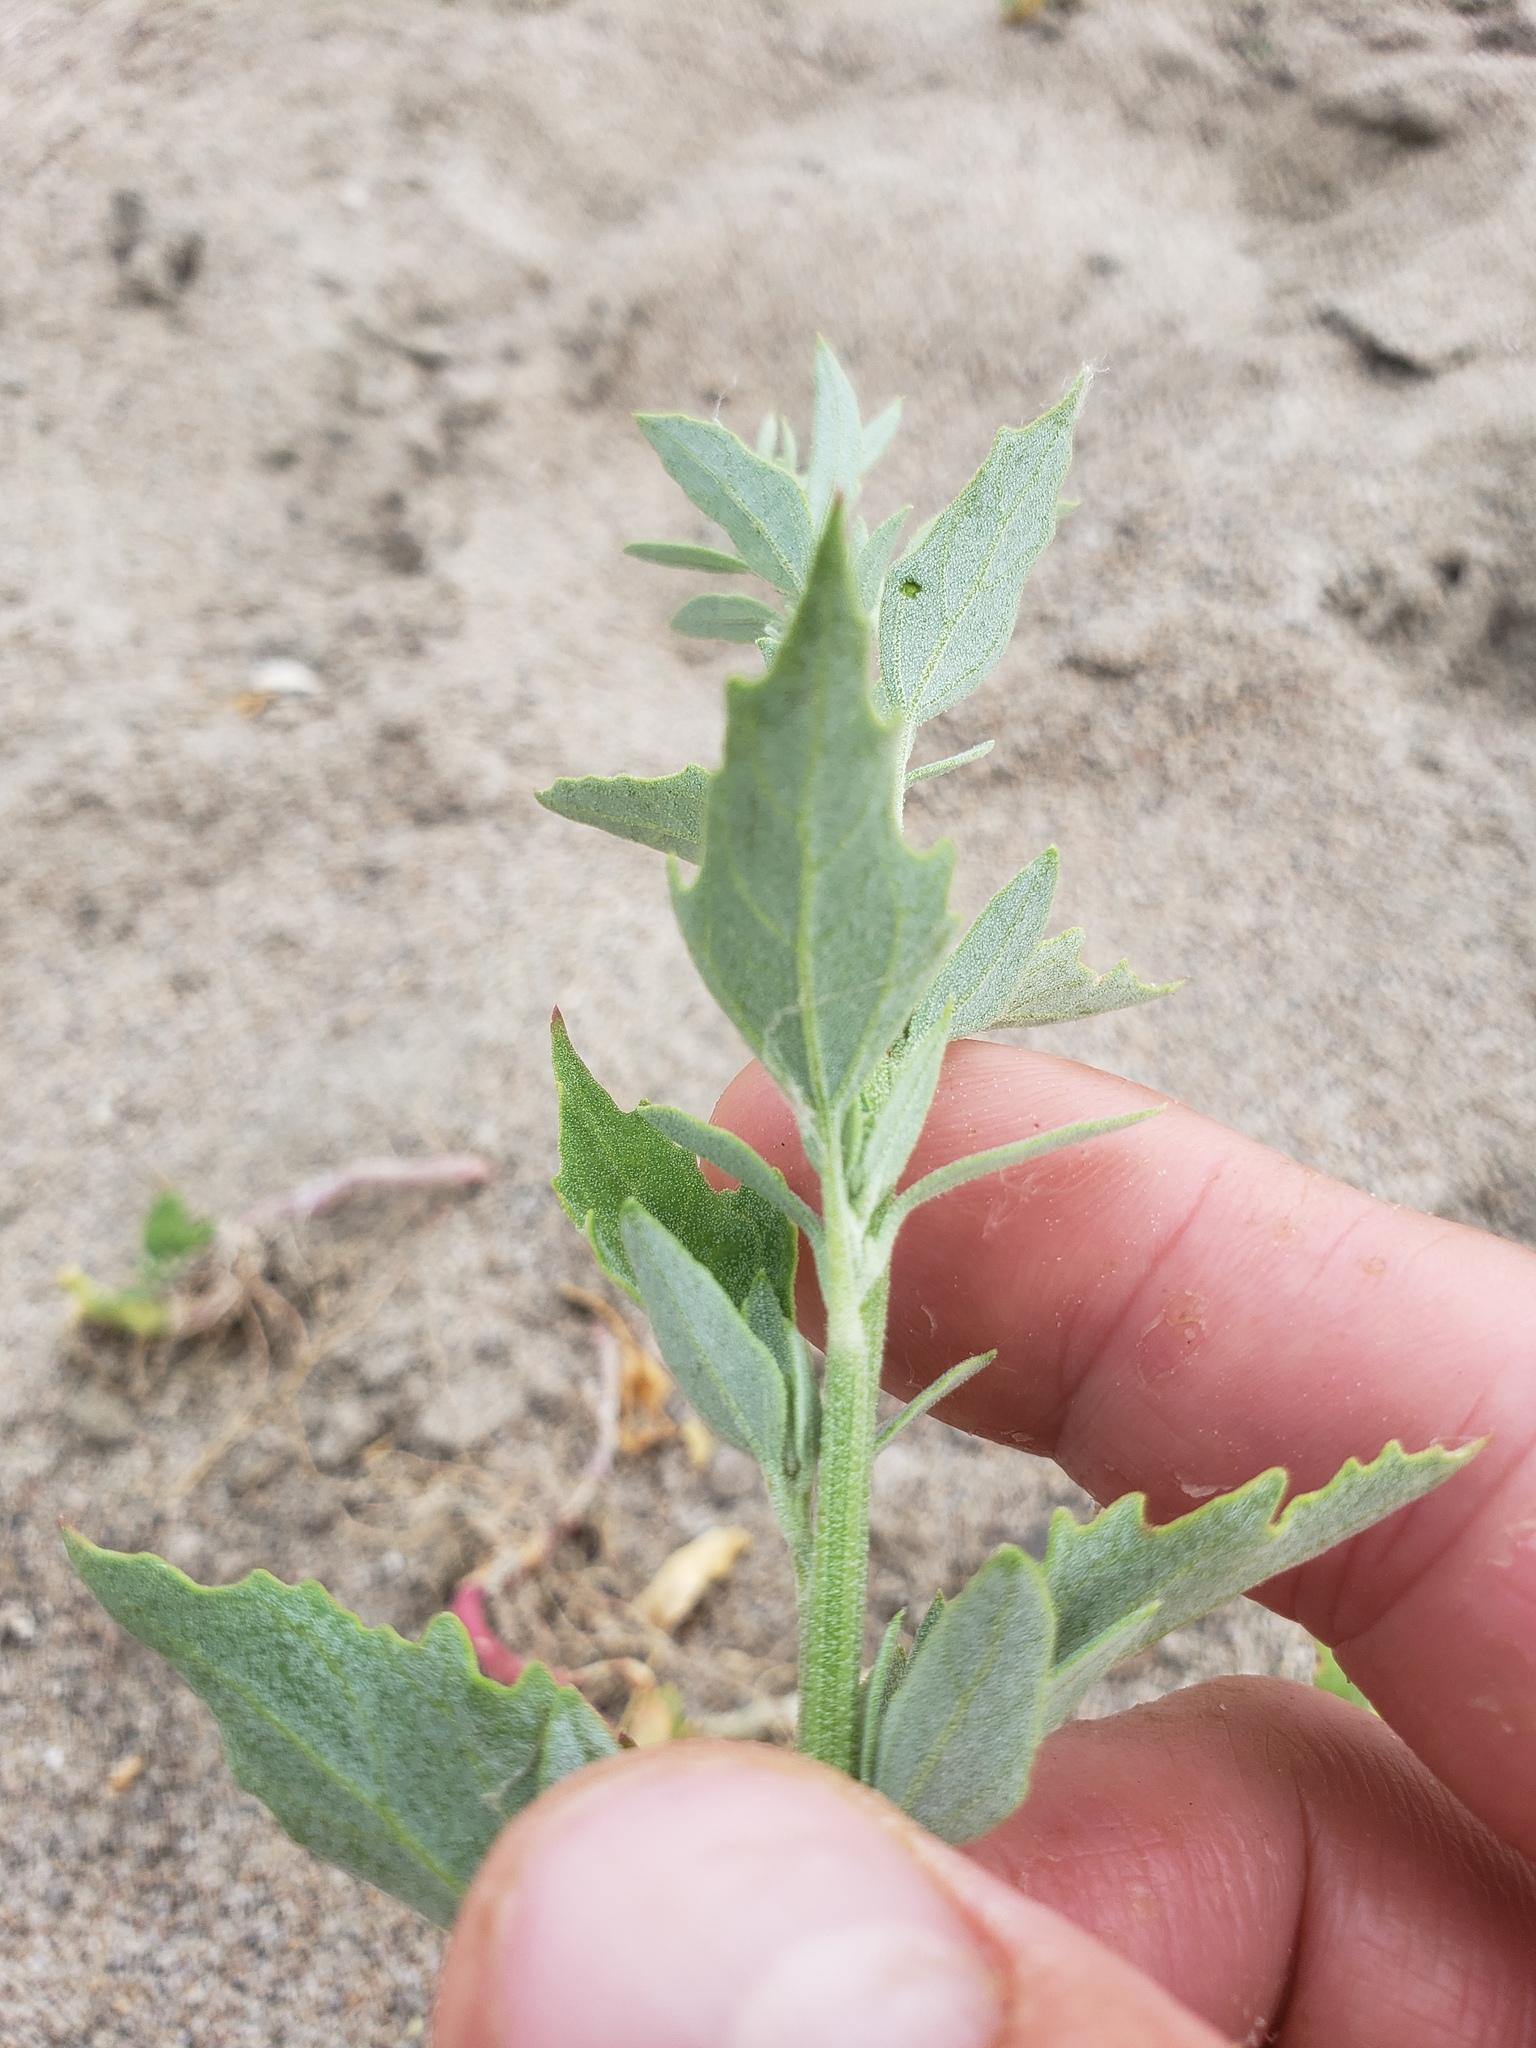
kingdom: Plantae
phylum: Tracheophyta
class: Magnoliopsida
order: Caryophyllales
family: Amaranthaceae
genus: Chenopodium
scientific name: Chenopodium album
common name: Fat-hen
